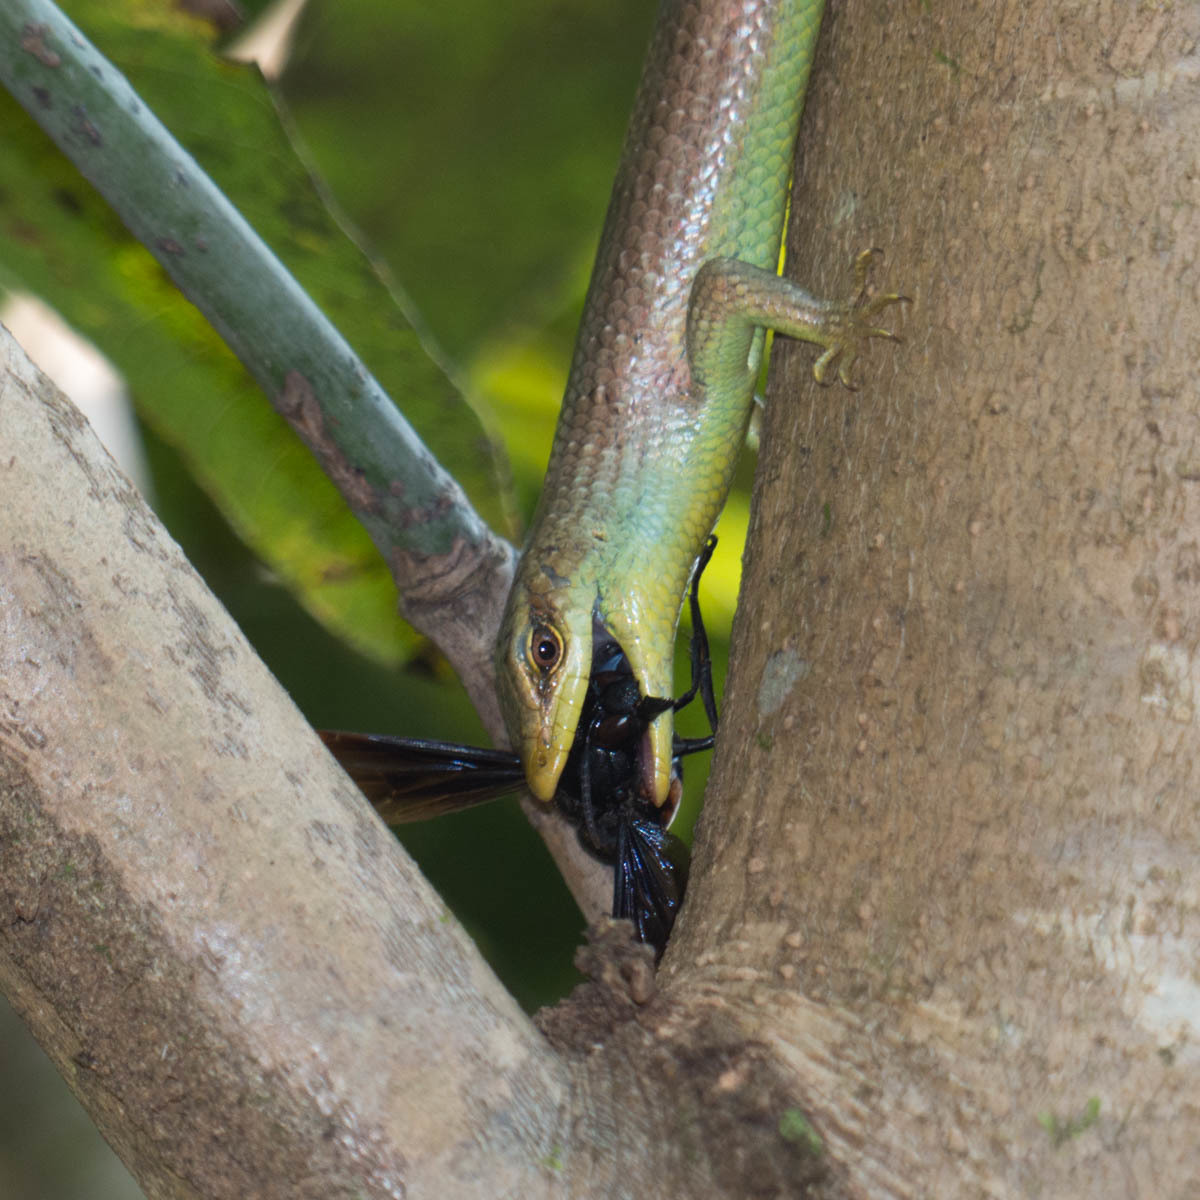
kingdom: Animalia
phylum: Chordata
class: Squamata
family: Scincidae
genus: Dasia
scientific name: Dasia olivacea
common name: Olive dasia
